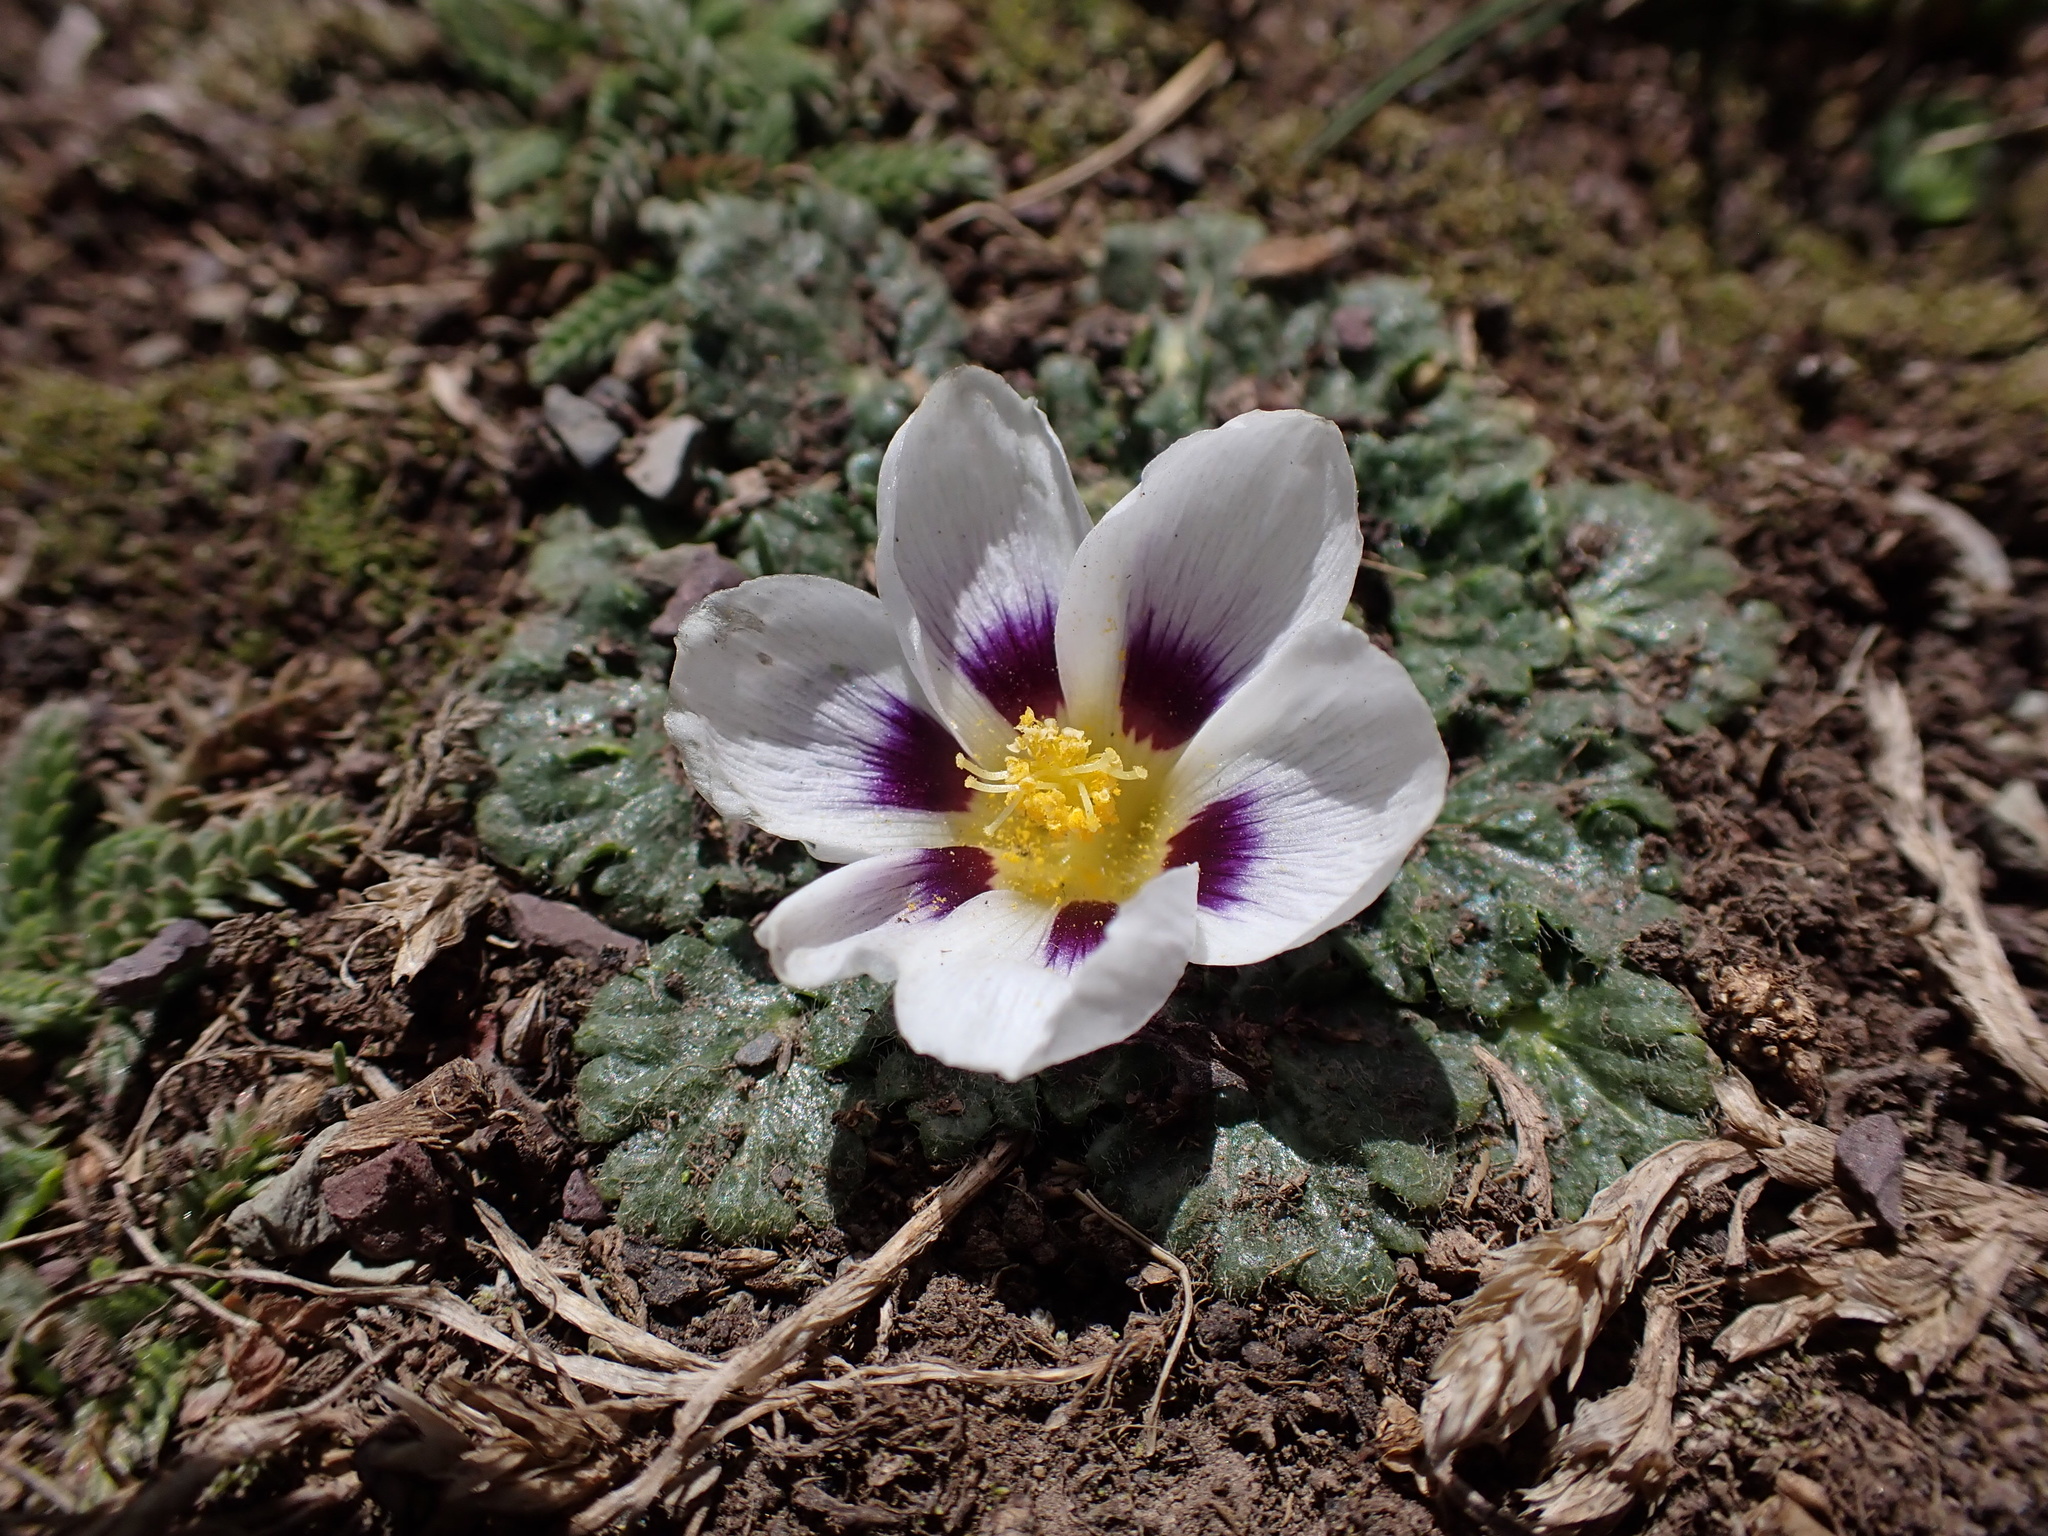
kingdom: Plantae
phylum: Tracheophyta
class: Magnoliopsida
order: Malvales
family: Malvaceae
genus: Acaulimalva
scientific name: Acaulimalva nubigena
